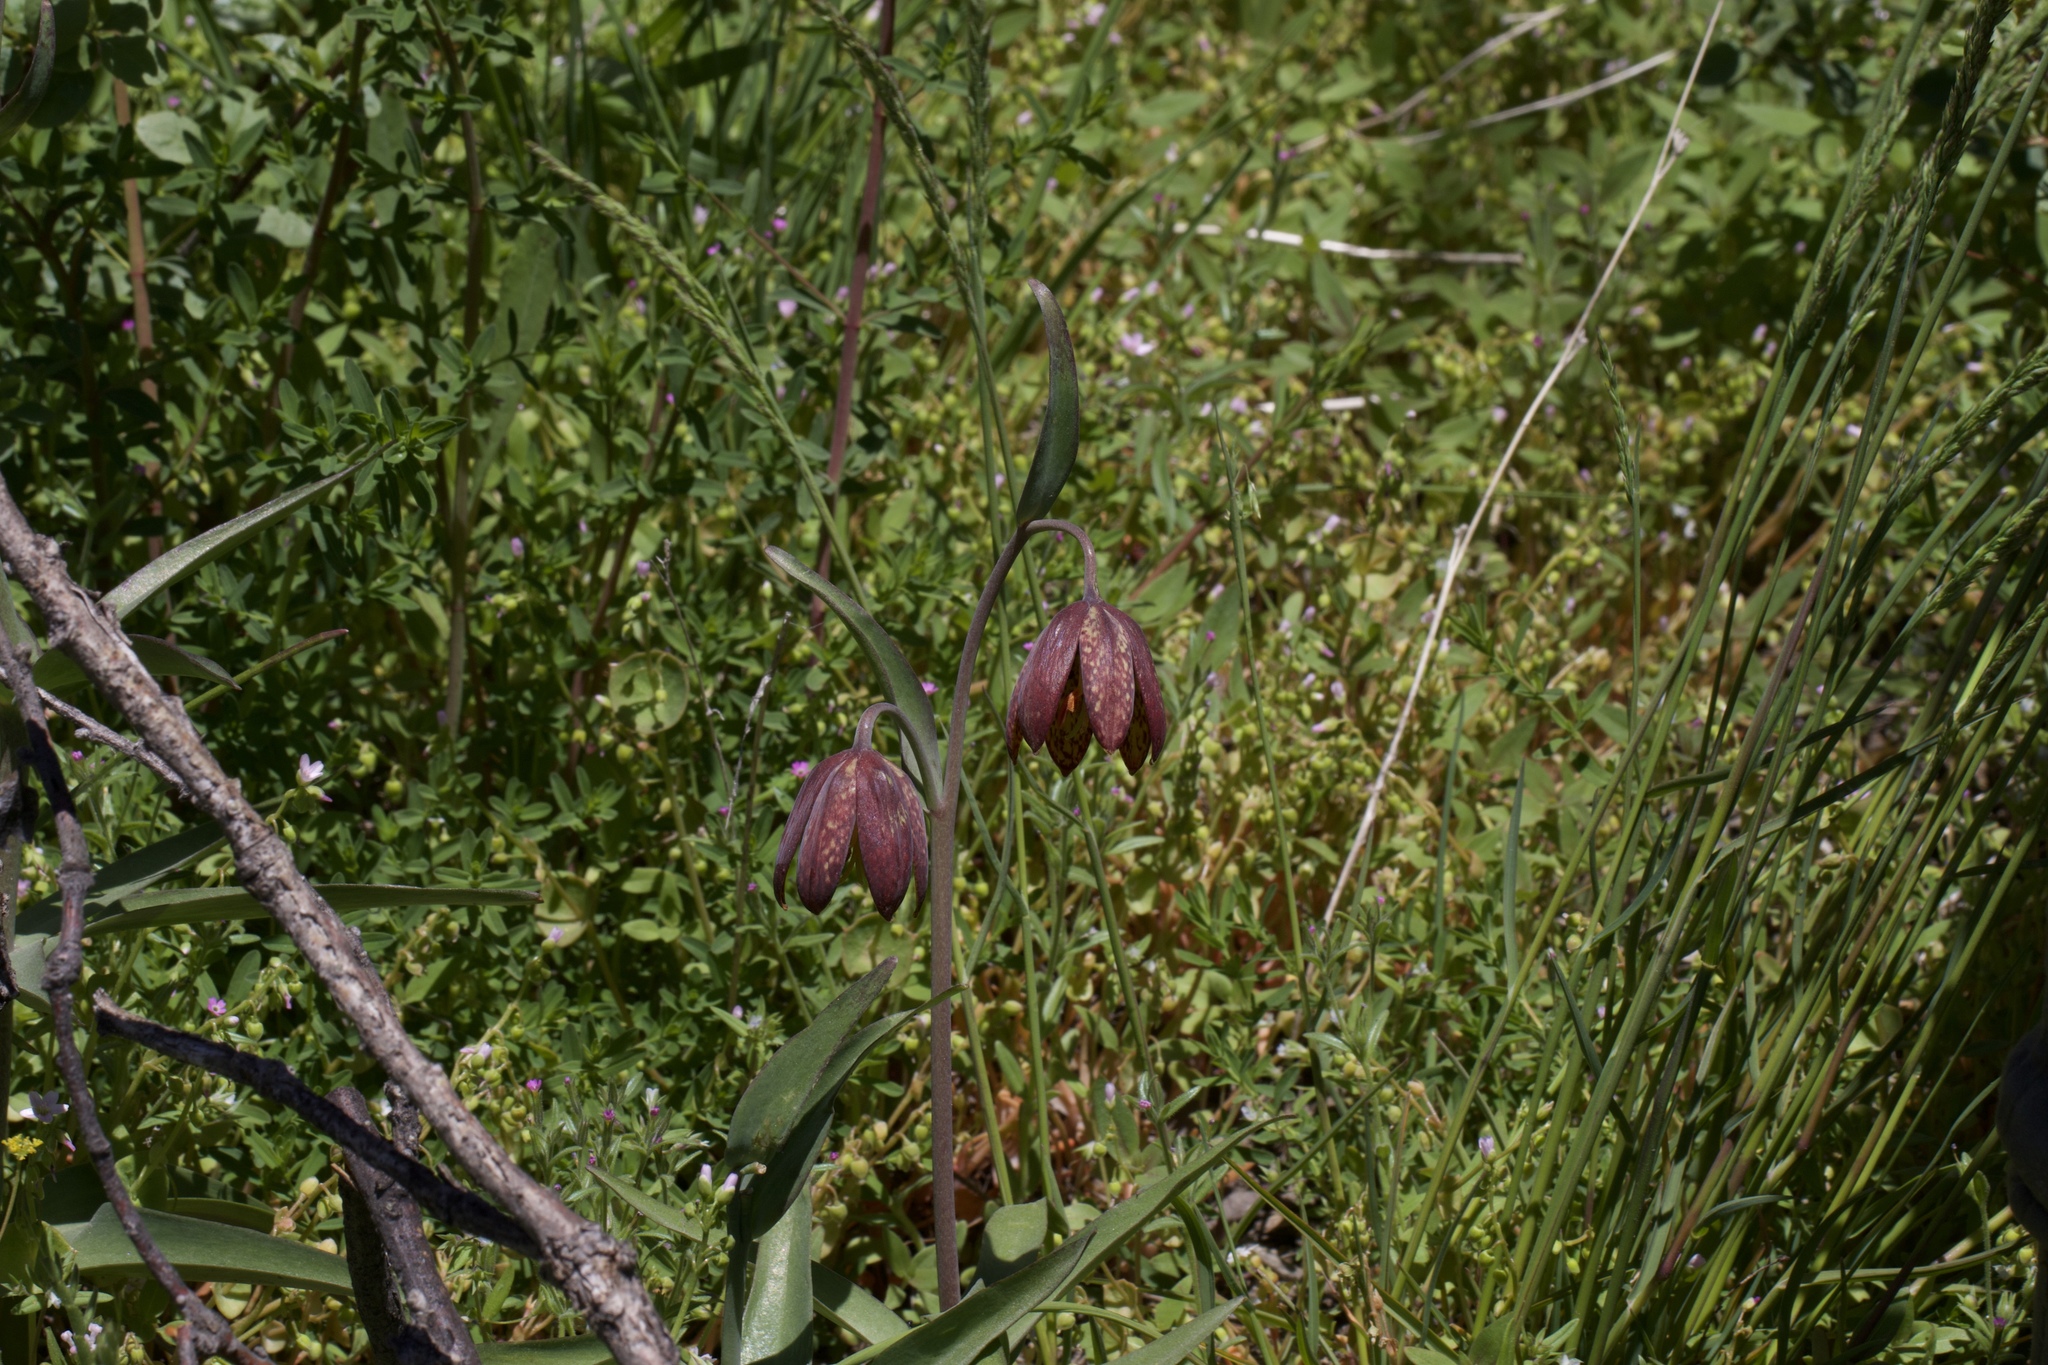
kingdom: Plantae
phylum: Tracheophyta
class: Liliopsida
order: Liliales
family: Liliaceae
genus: Fritillaria
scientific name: Fritillaria affinis
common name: Ojai fritillary
